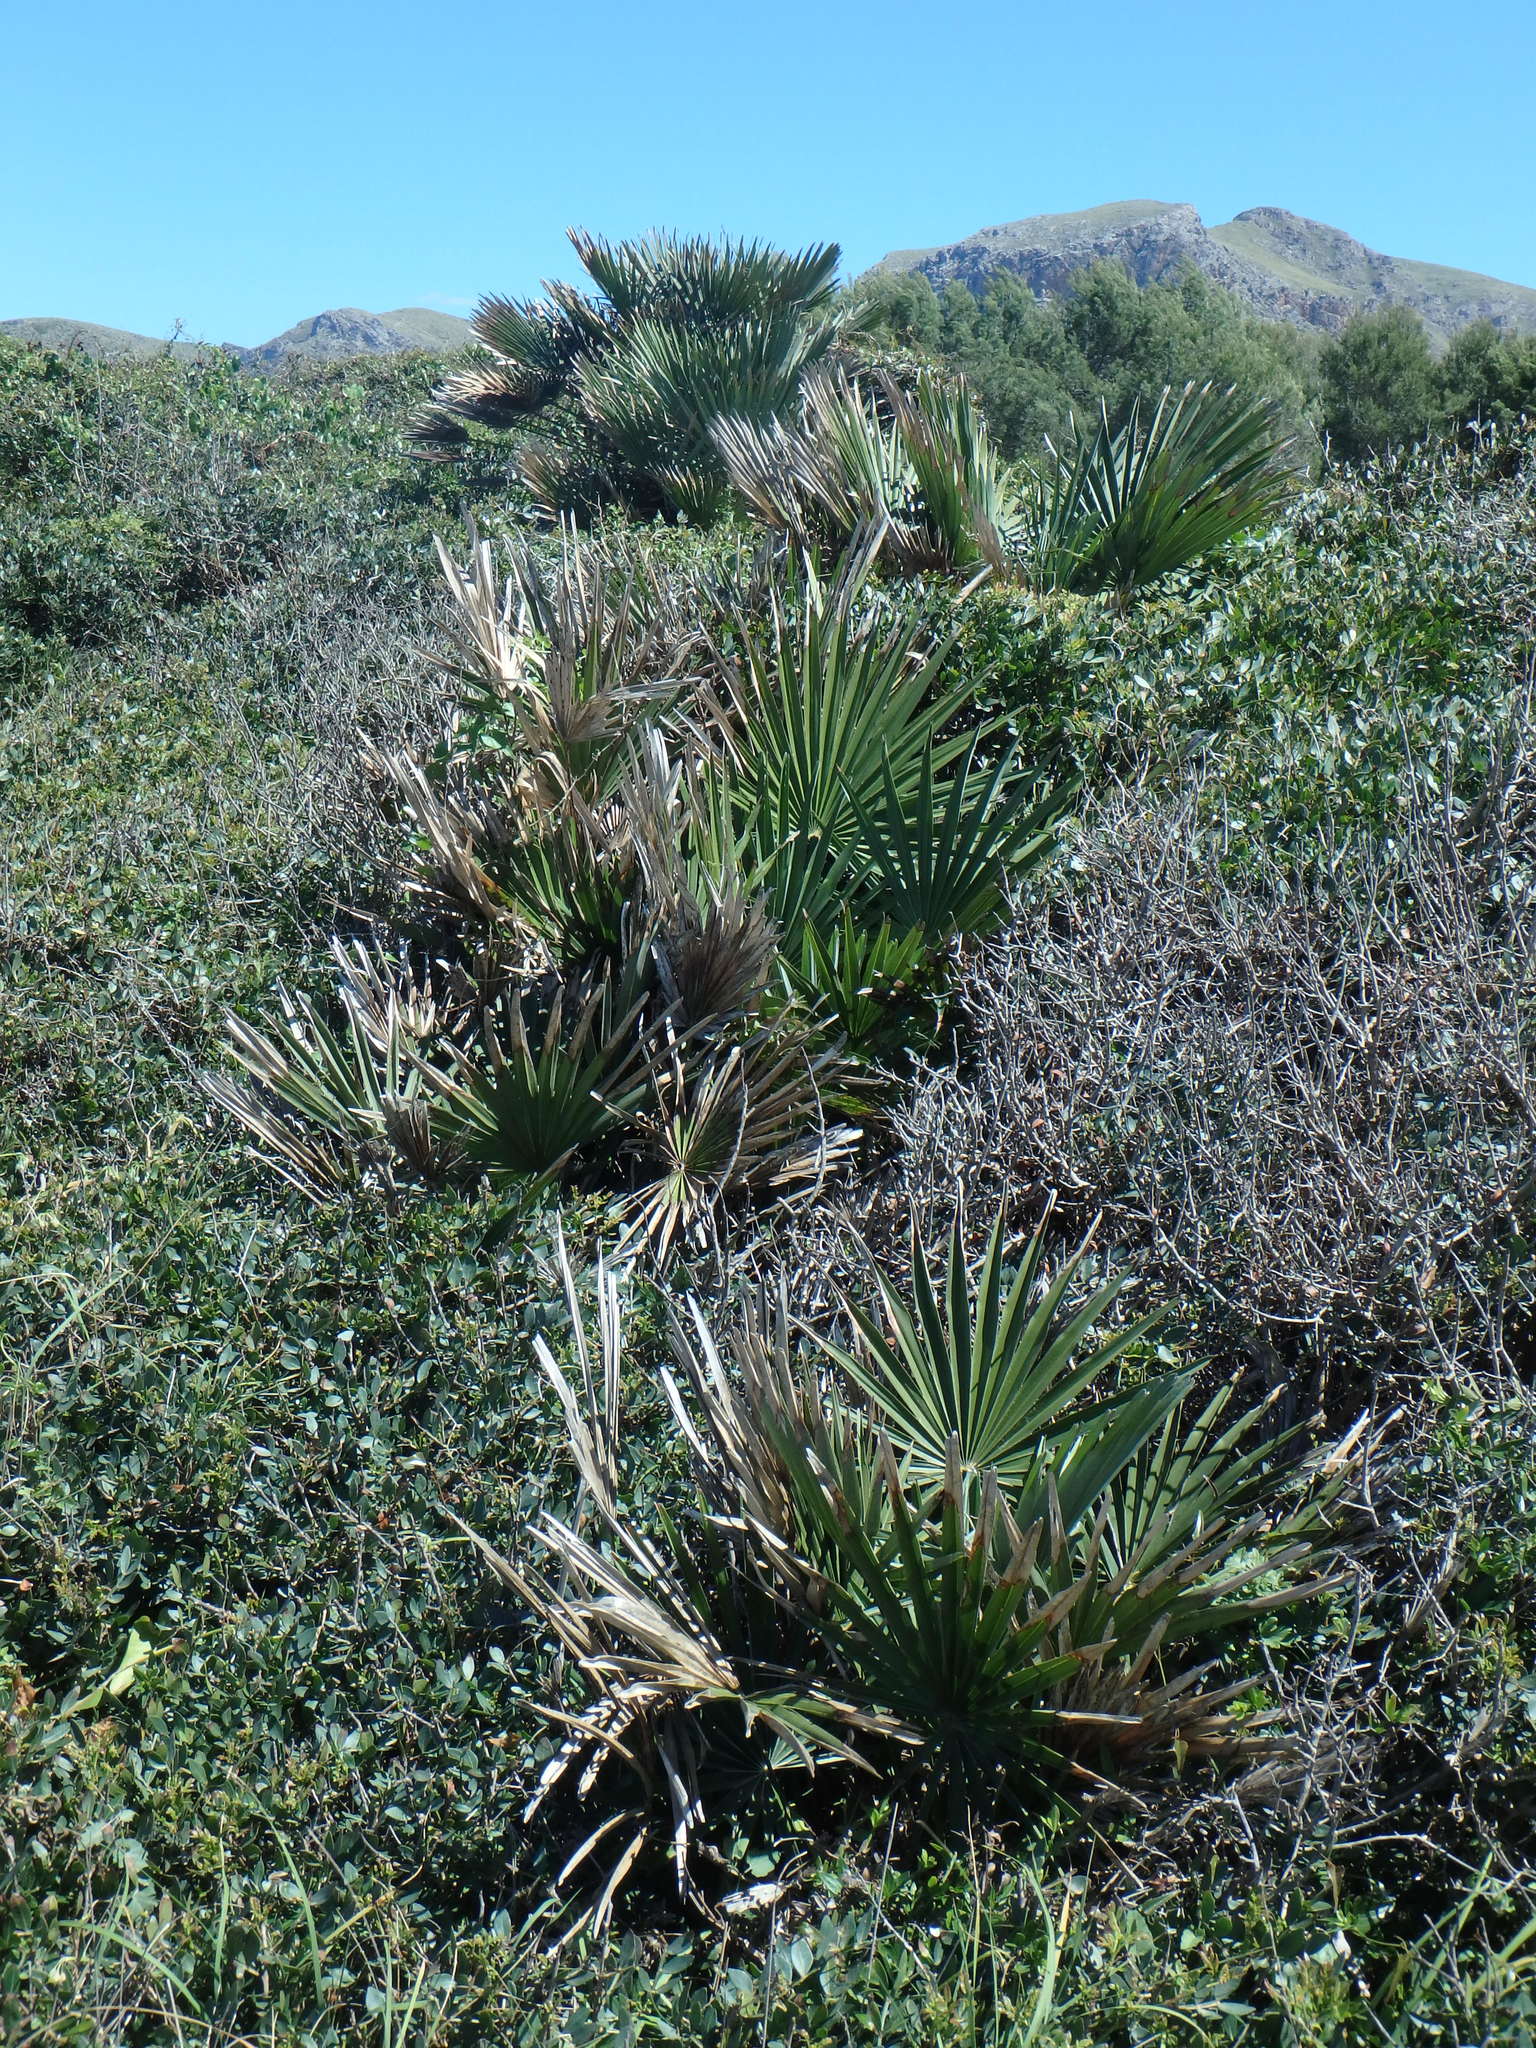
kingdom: Plantae
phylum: Tracheophyta
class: Liliopsida
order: Arecales
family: Arecaceae
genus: Chamaerops
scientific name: Chamaerops humilis
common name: Dwarf fan palm
